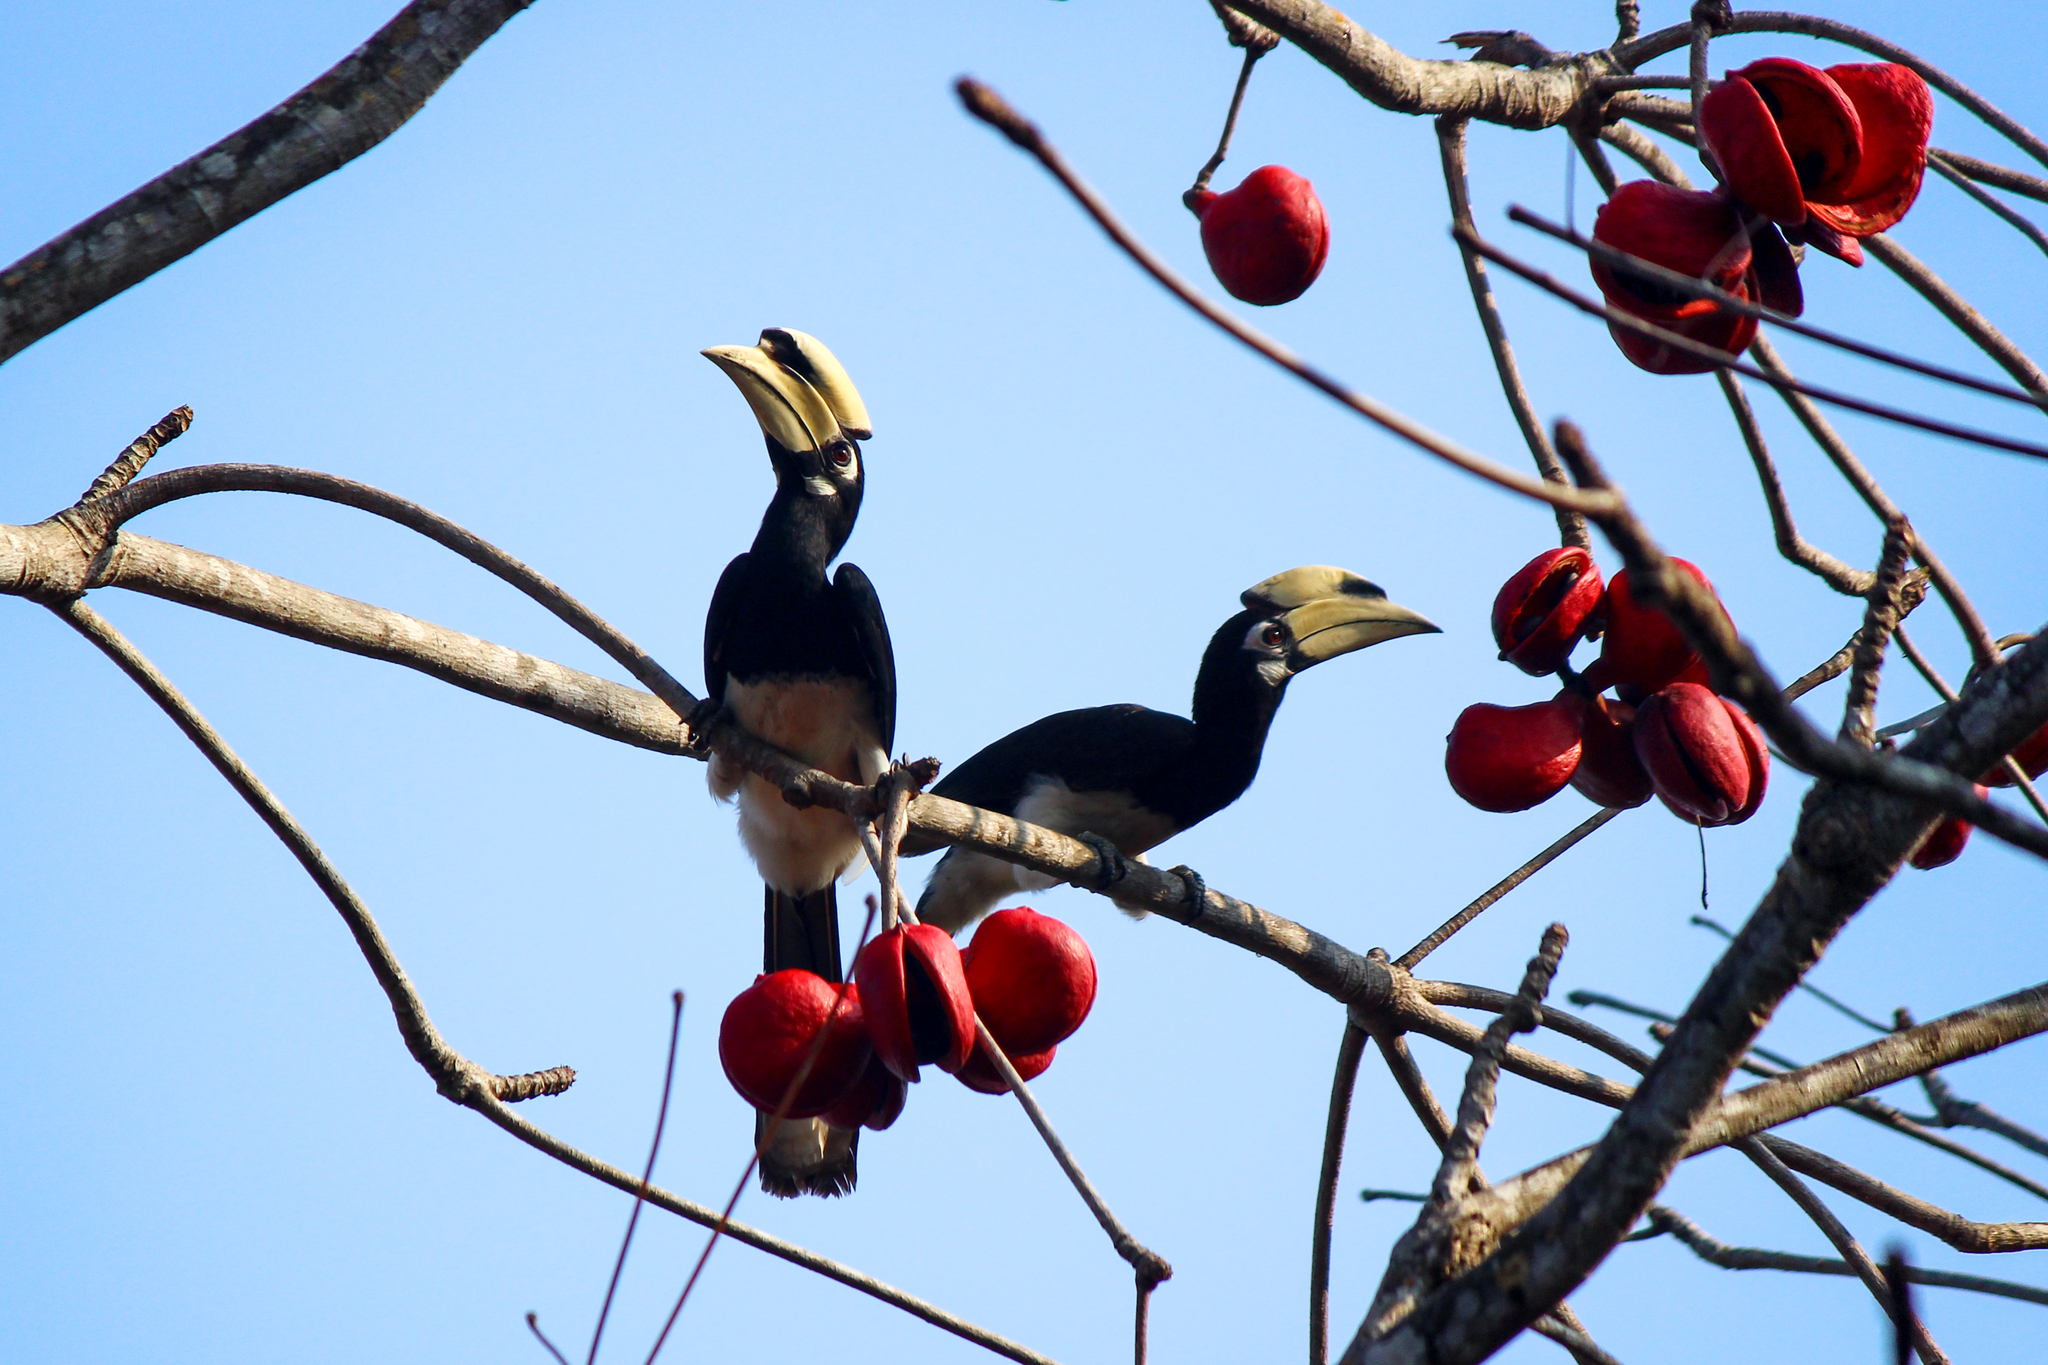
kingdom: Animalia
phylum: Chordata
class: Aves
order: Bucerotiformes
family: Bucerotidae
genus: Anthracoceros
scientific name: Anthracoceros albirostris
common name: Oriental pied-hornbill
